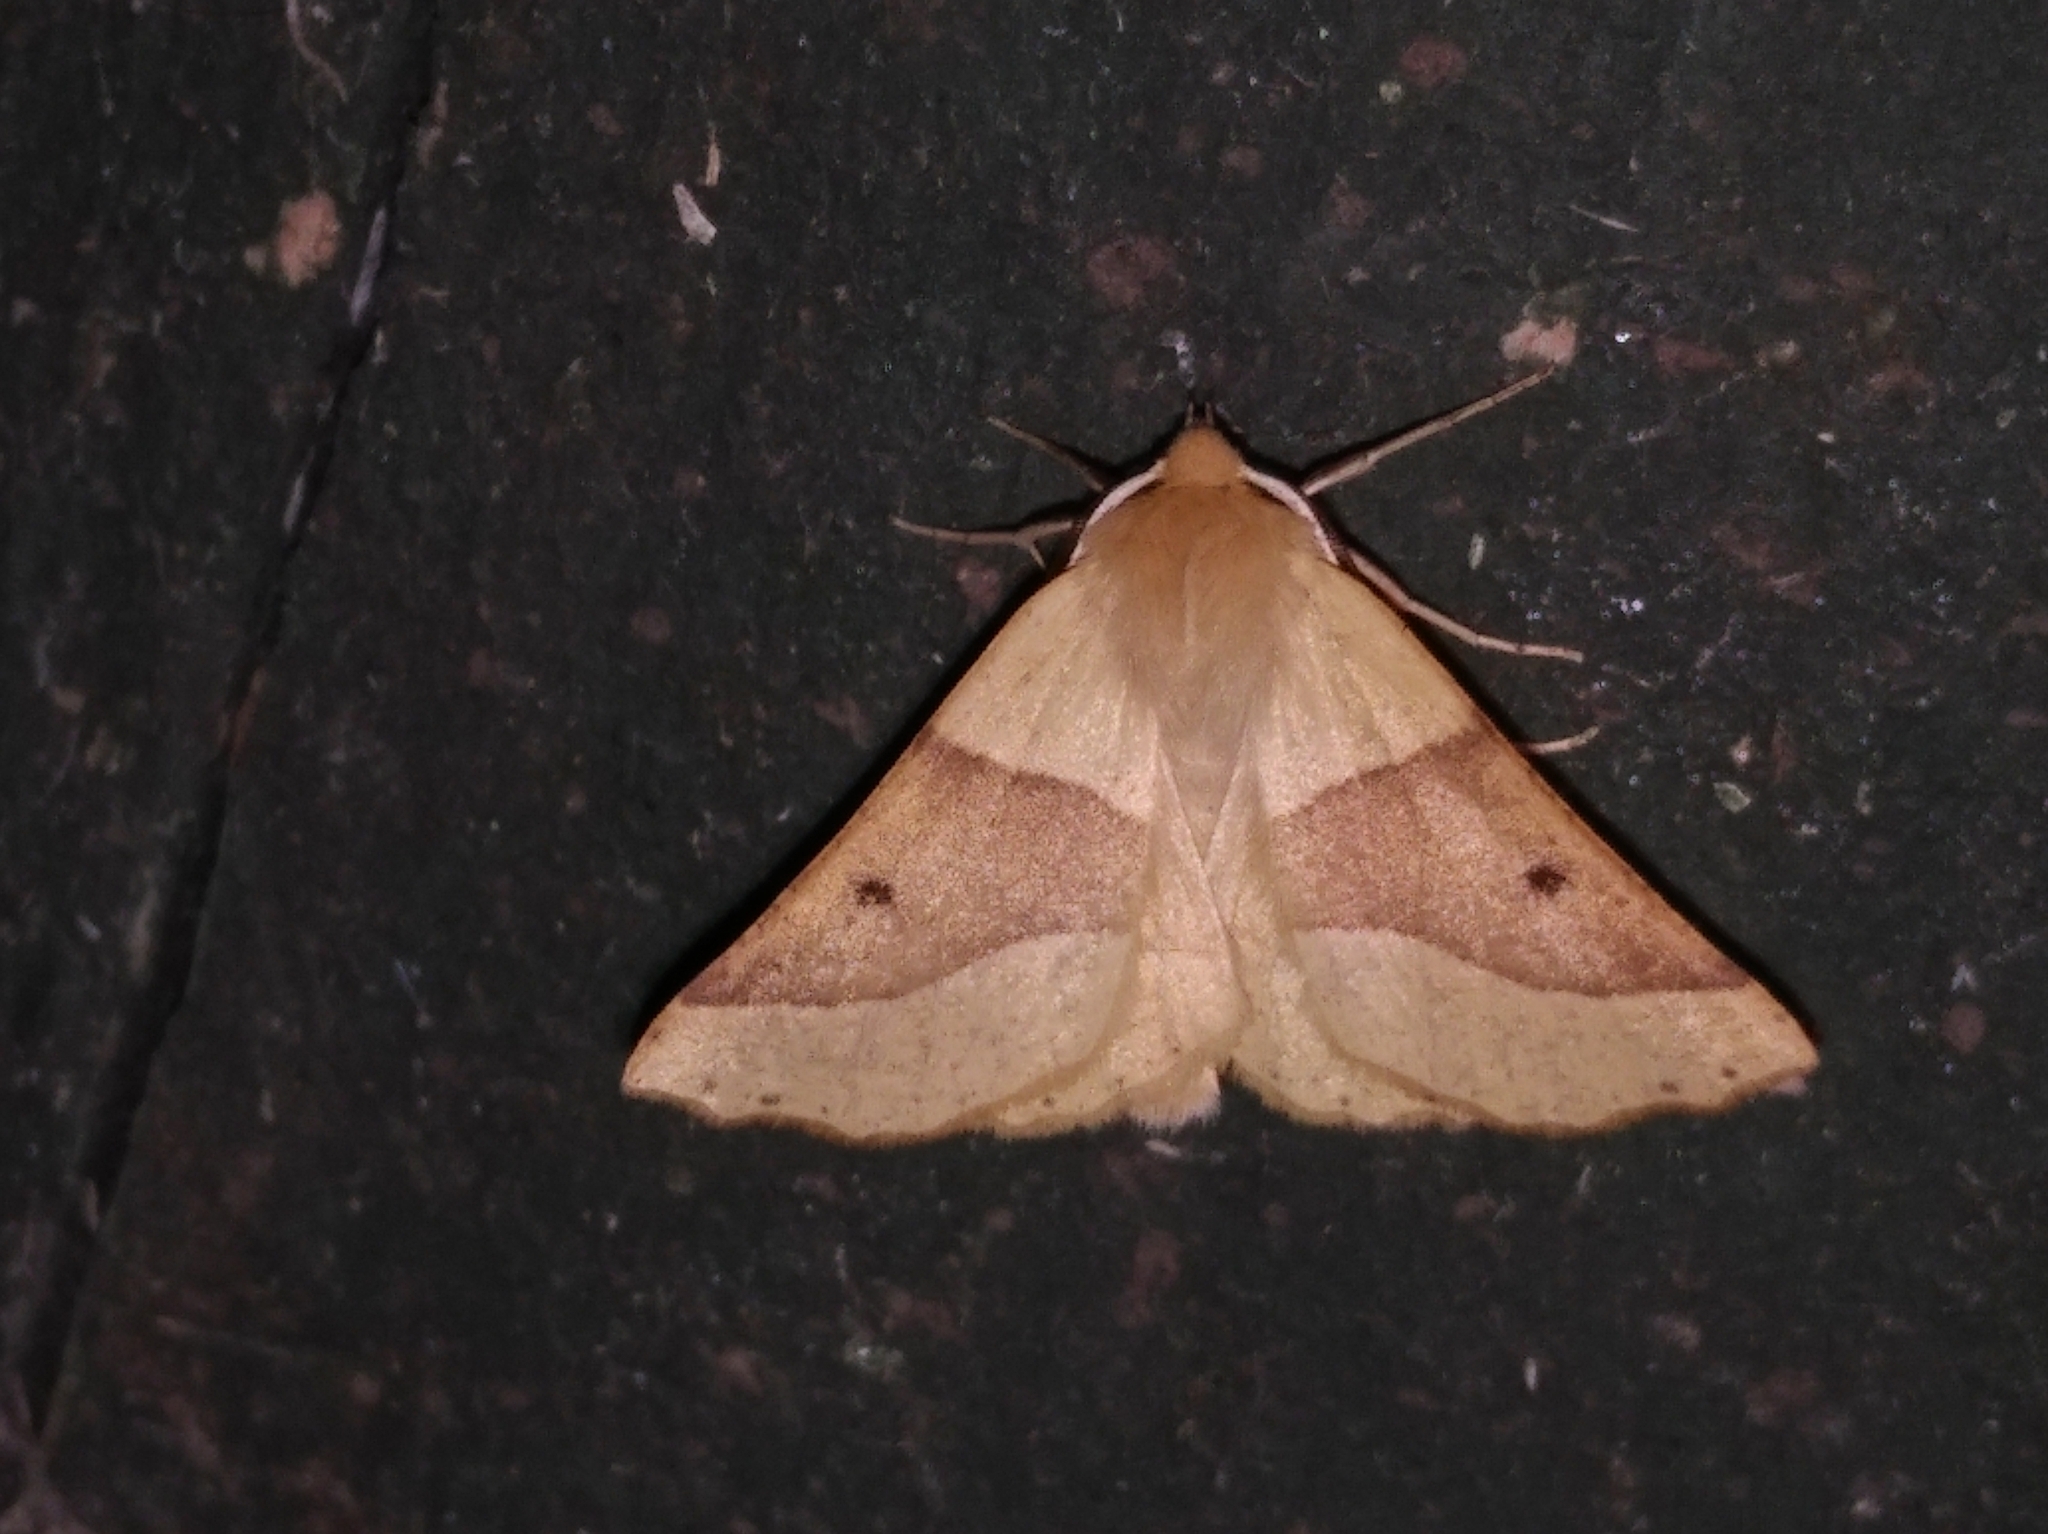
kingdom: Animalia
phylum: Arthropoda
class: Insecta
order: Lepidoptera
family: Geometridae
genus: Crocallis
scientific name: Crocallis elinguaria
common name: Scalloped oak
